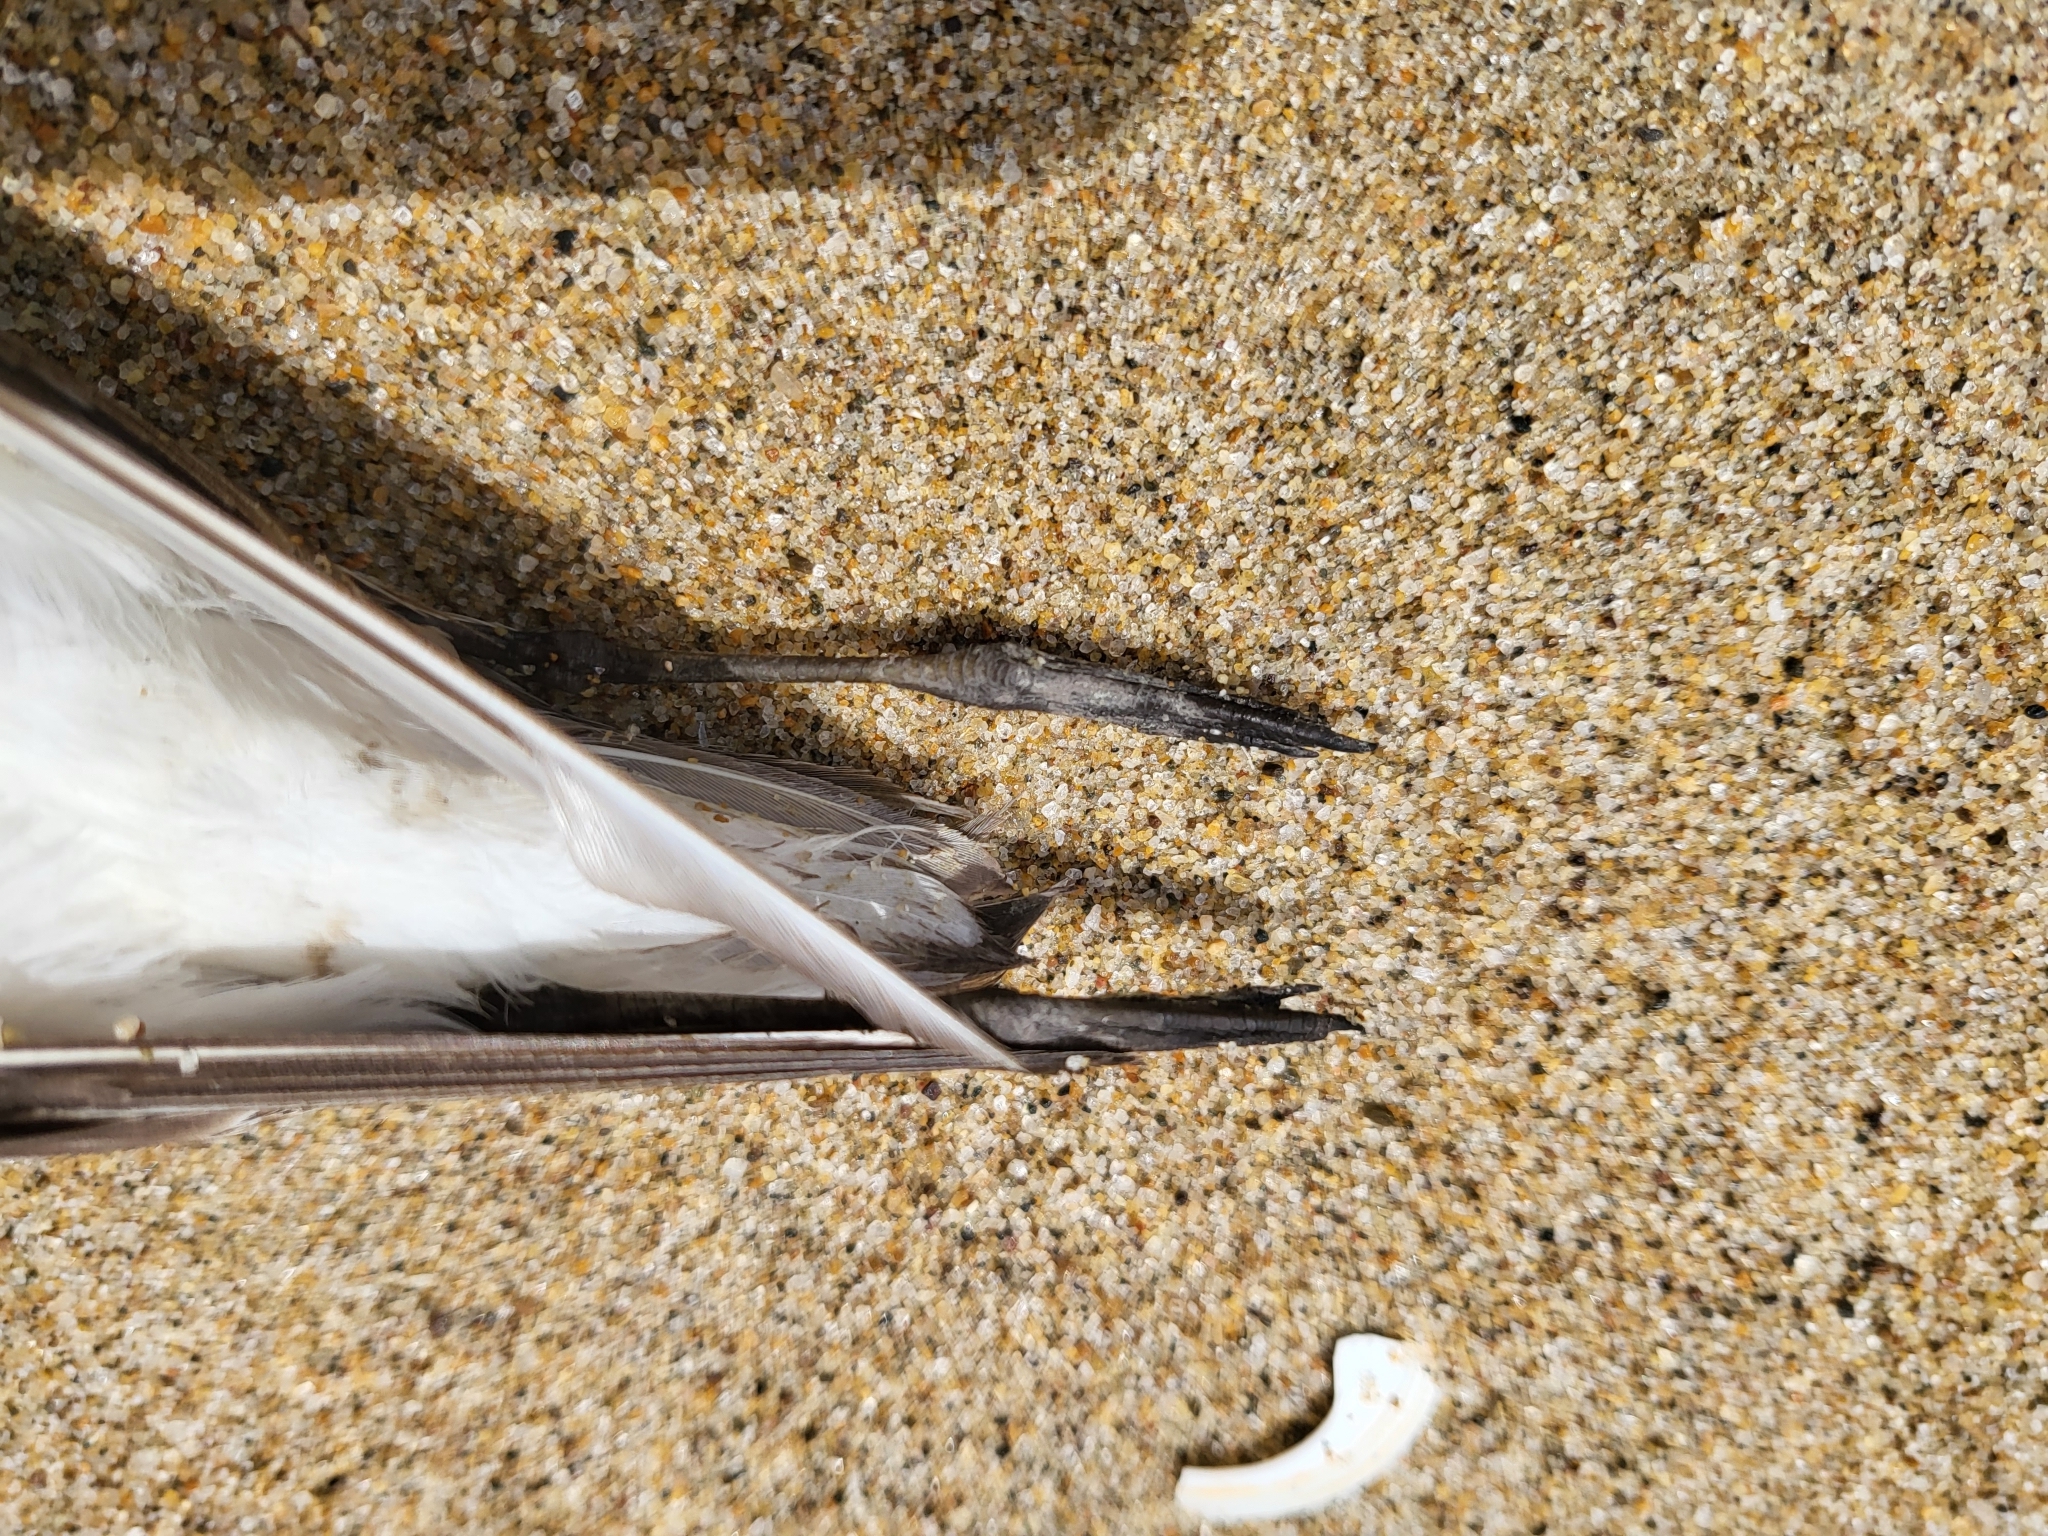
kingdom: Animalia
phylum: Chordata
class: Aves
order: Charadriiformes
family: Scolopacidae
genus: Calidris
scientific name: Calidris mauri
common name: Western sandpiper
